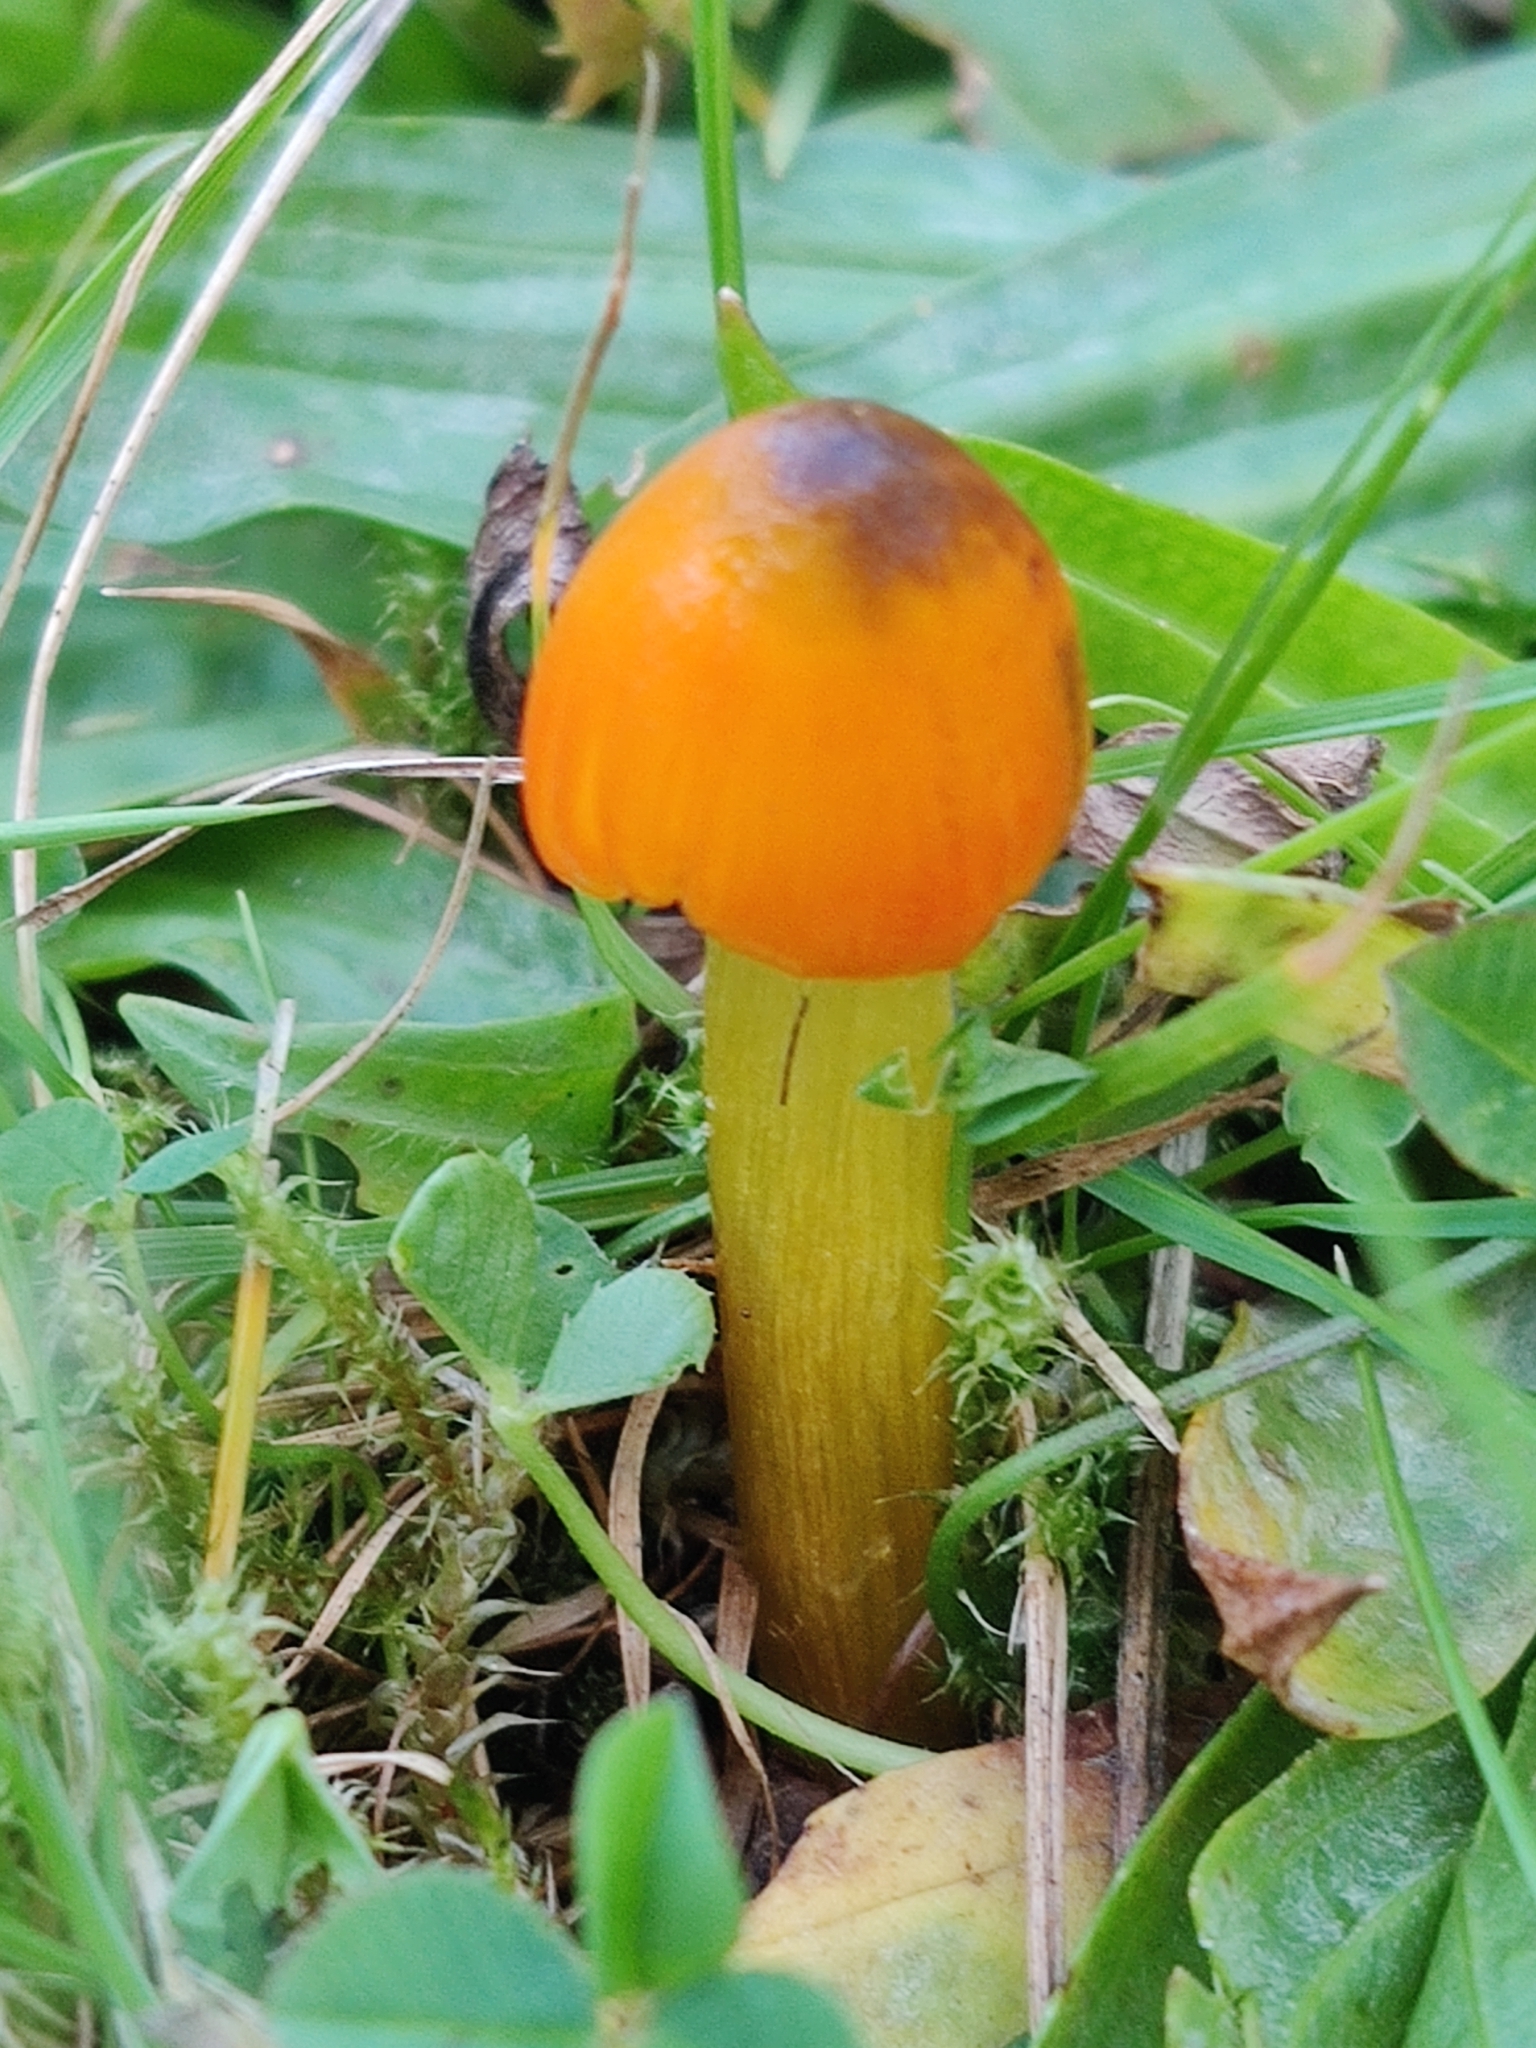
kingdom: Fungi
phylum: Basidiomycota
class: Agaricomycetes
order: Agaricales
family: Hygrophoraceae
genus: Hygrocybe
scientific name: Hygrocybe conica
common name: Blackening wax-cap
